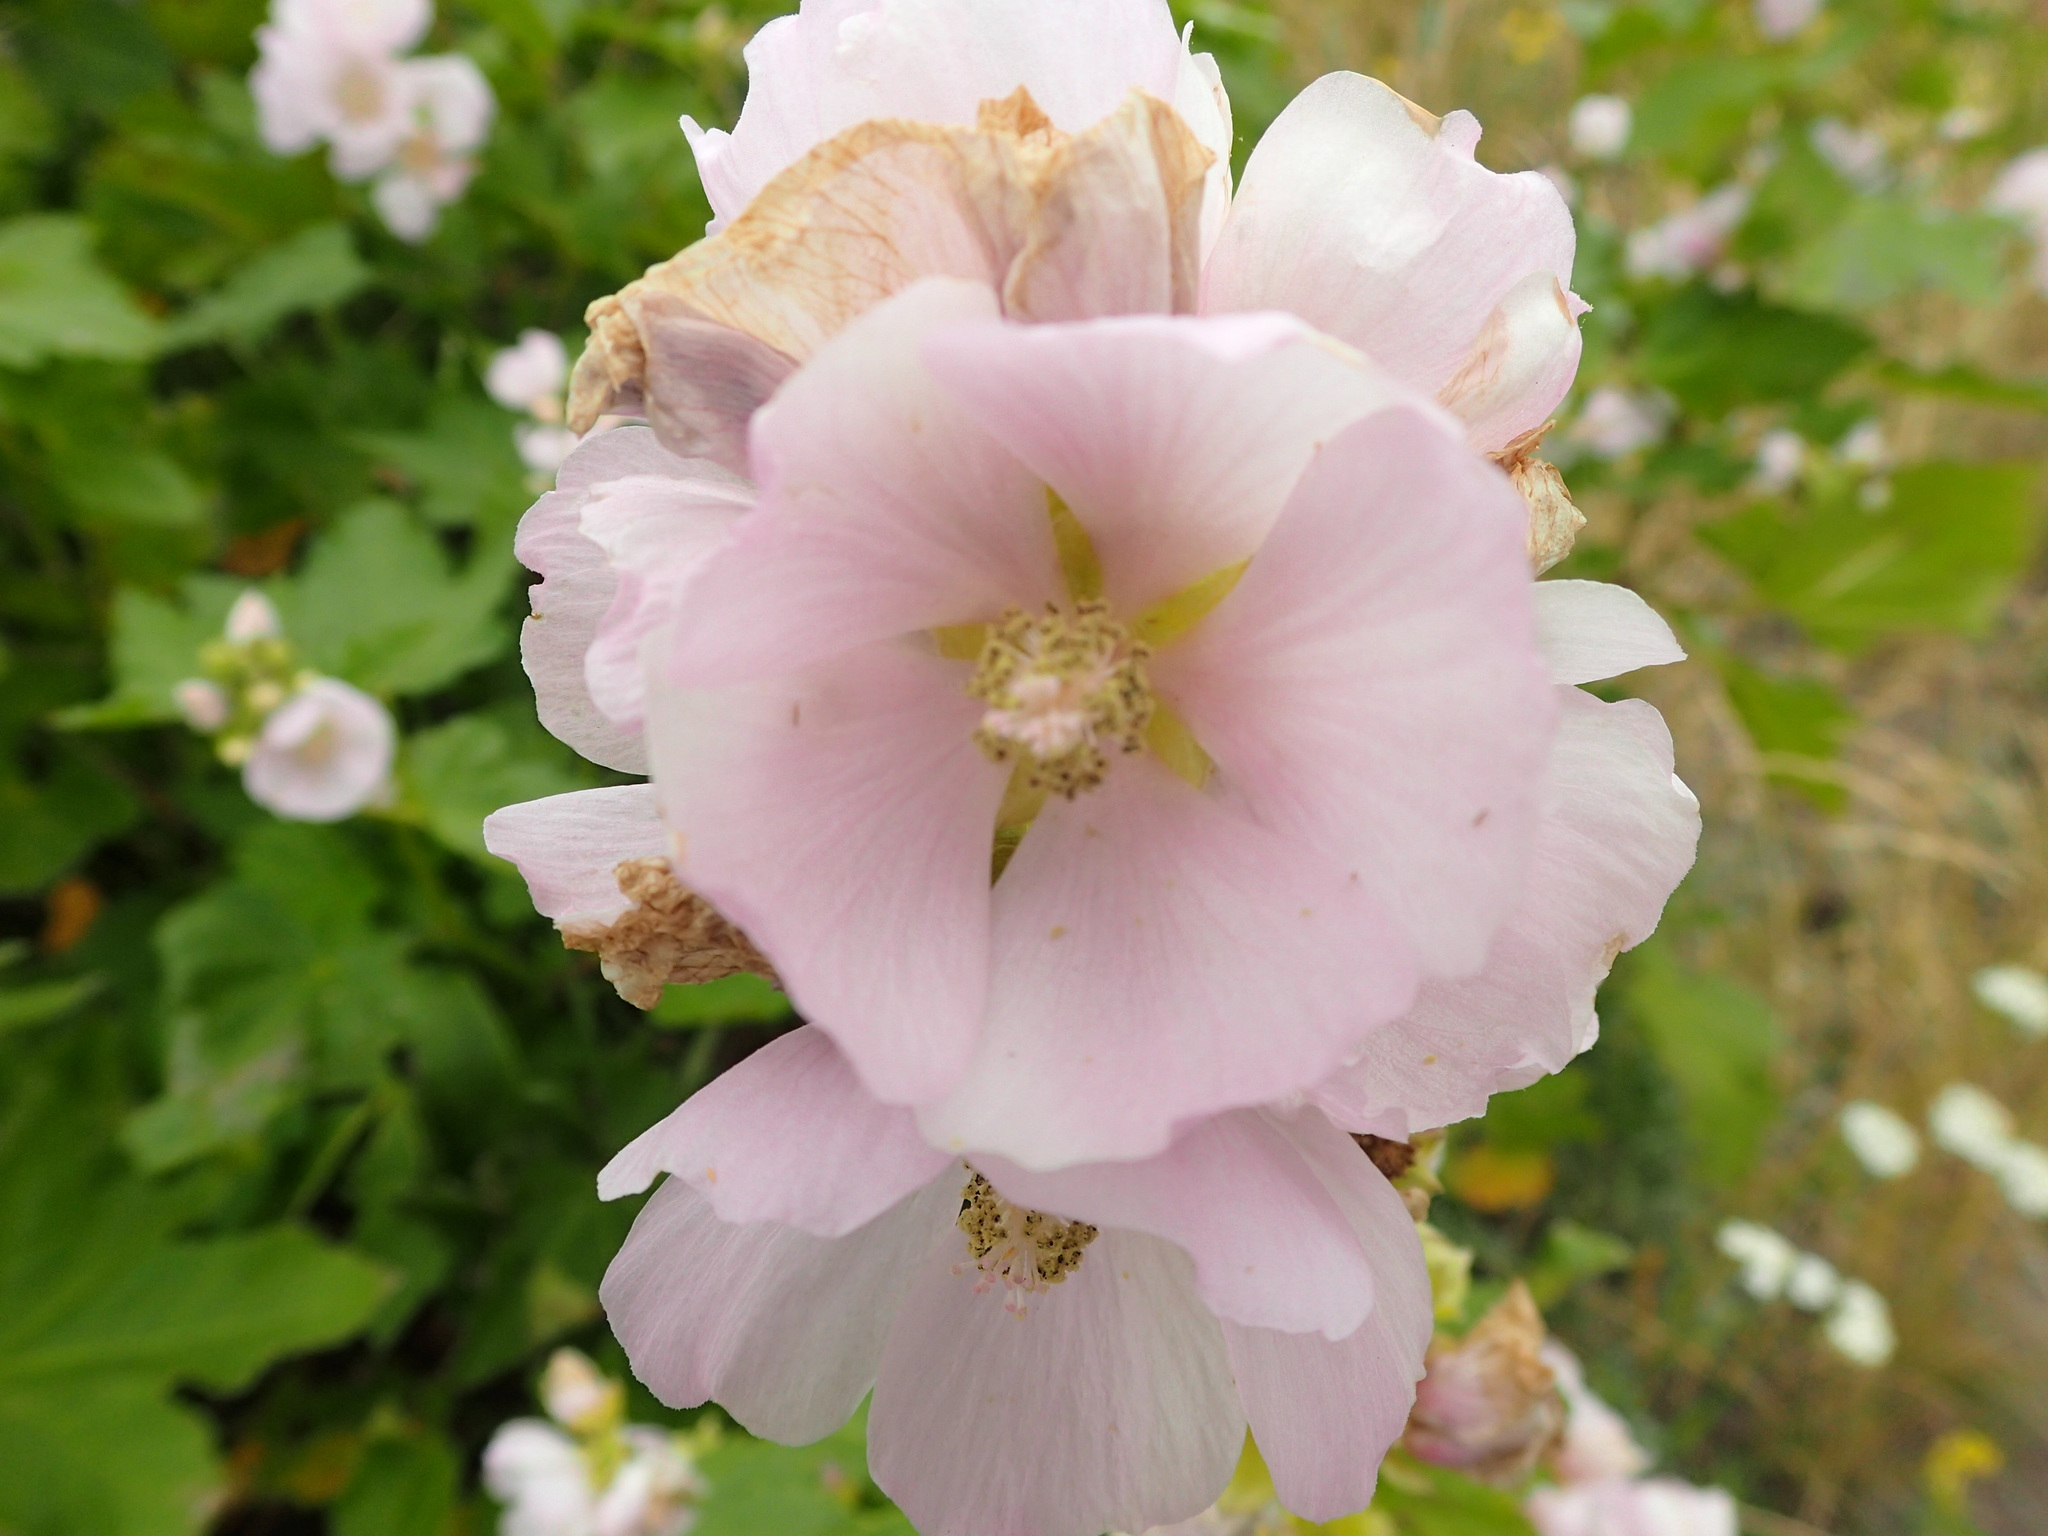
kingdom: Plantae
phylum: Tracheophyta
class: Magnoliopsida
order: Malvales
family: Malvaceae
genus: Iliamna
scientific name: Iliamna rivularis
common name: Wild hollyhock
